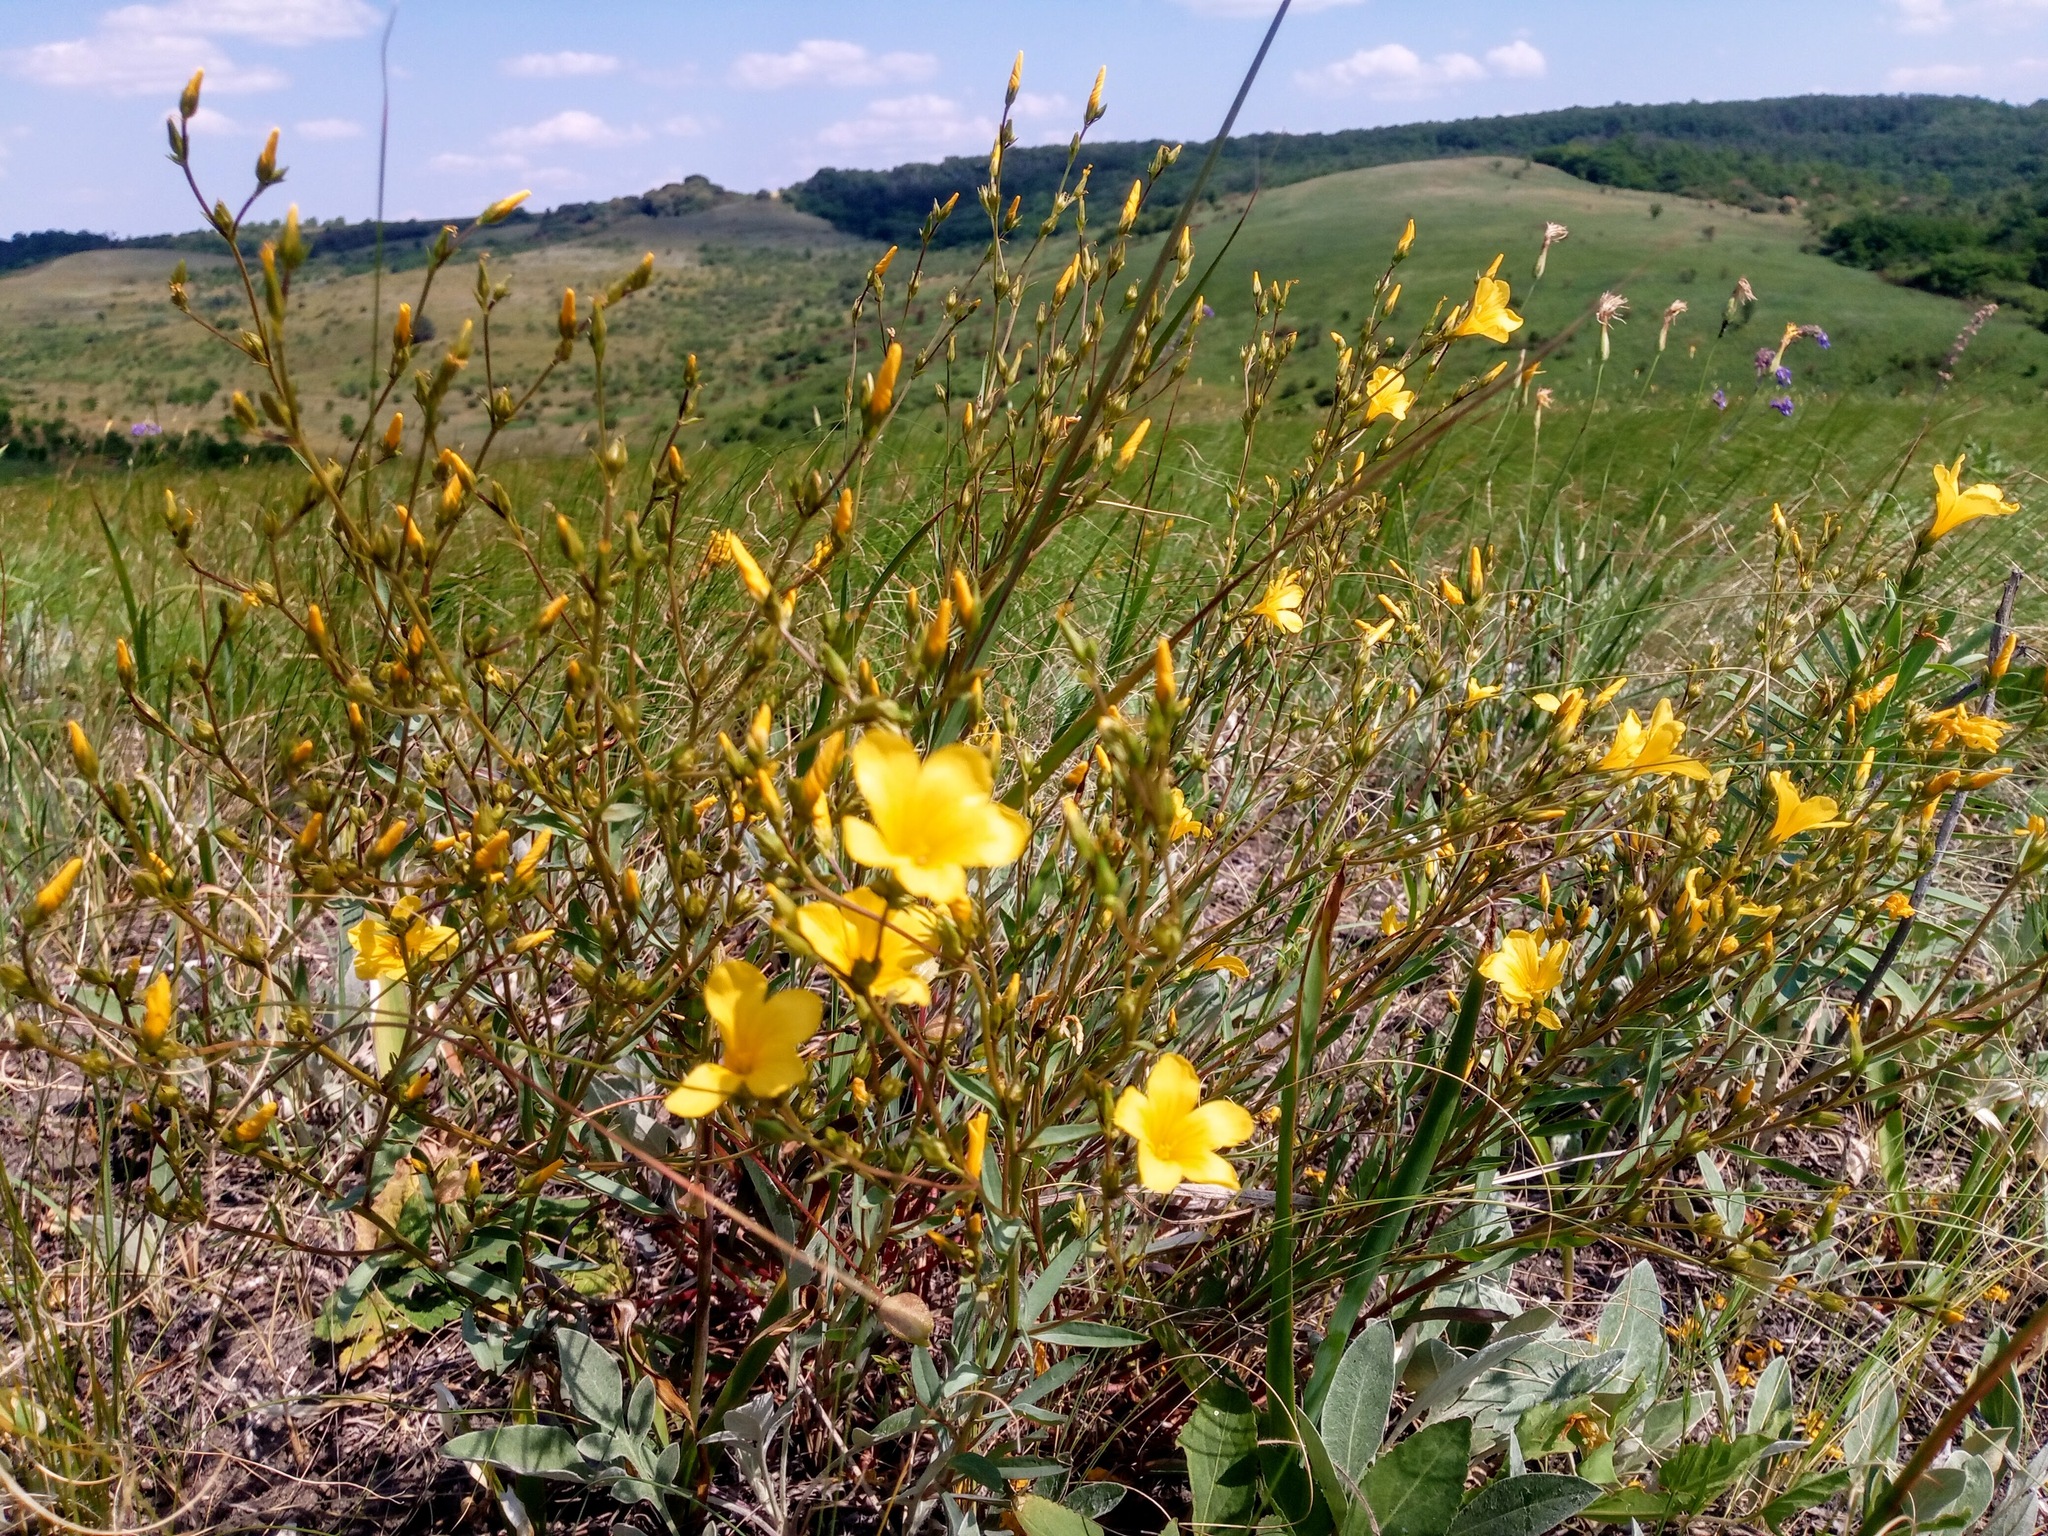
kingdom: Plantae
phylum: Tracheophyta
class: Magnoliopsida
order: Malpighiales
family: Linaceae
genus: Linum
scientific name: Linum flavum
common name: Yellow flax
